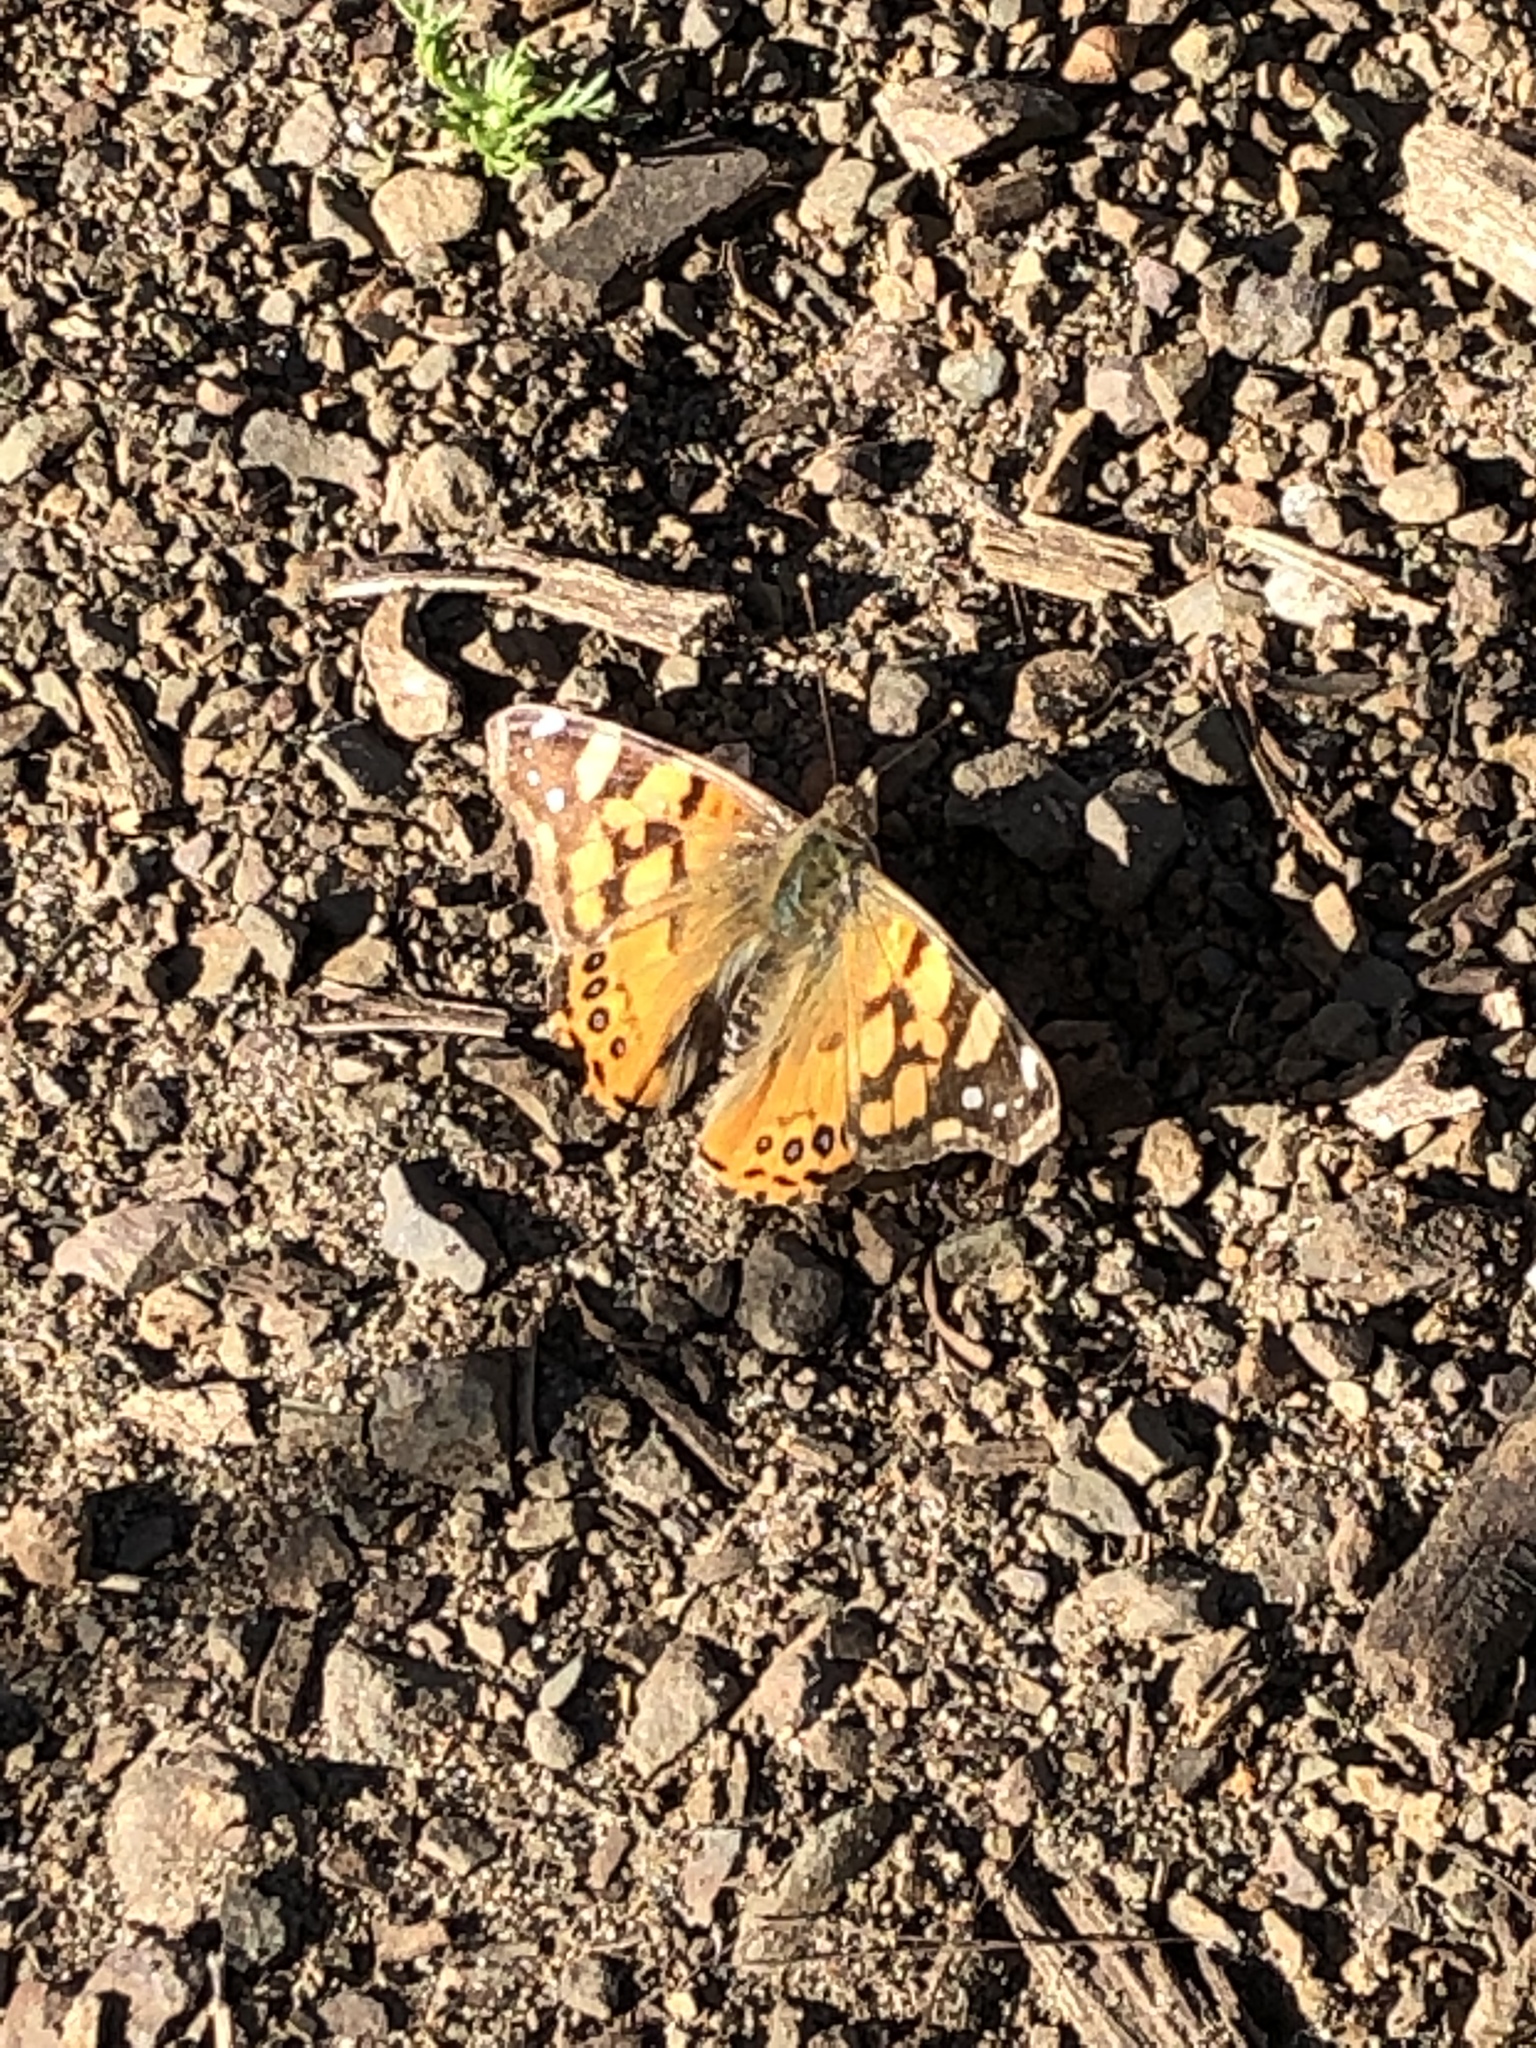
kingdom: Animalia
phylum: Arthropoda
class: Insecta
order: Lepidoptera
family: Nymphalidae
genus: Vanessa
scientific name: Vanessa annabella
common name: West coast lady
